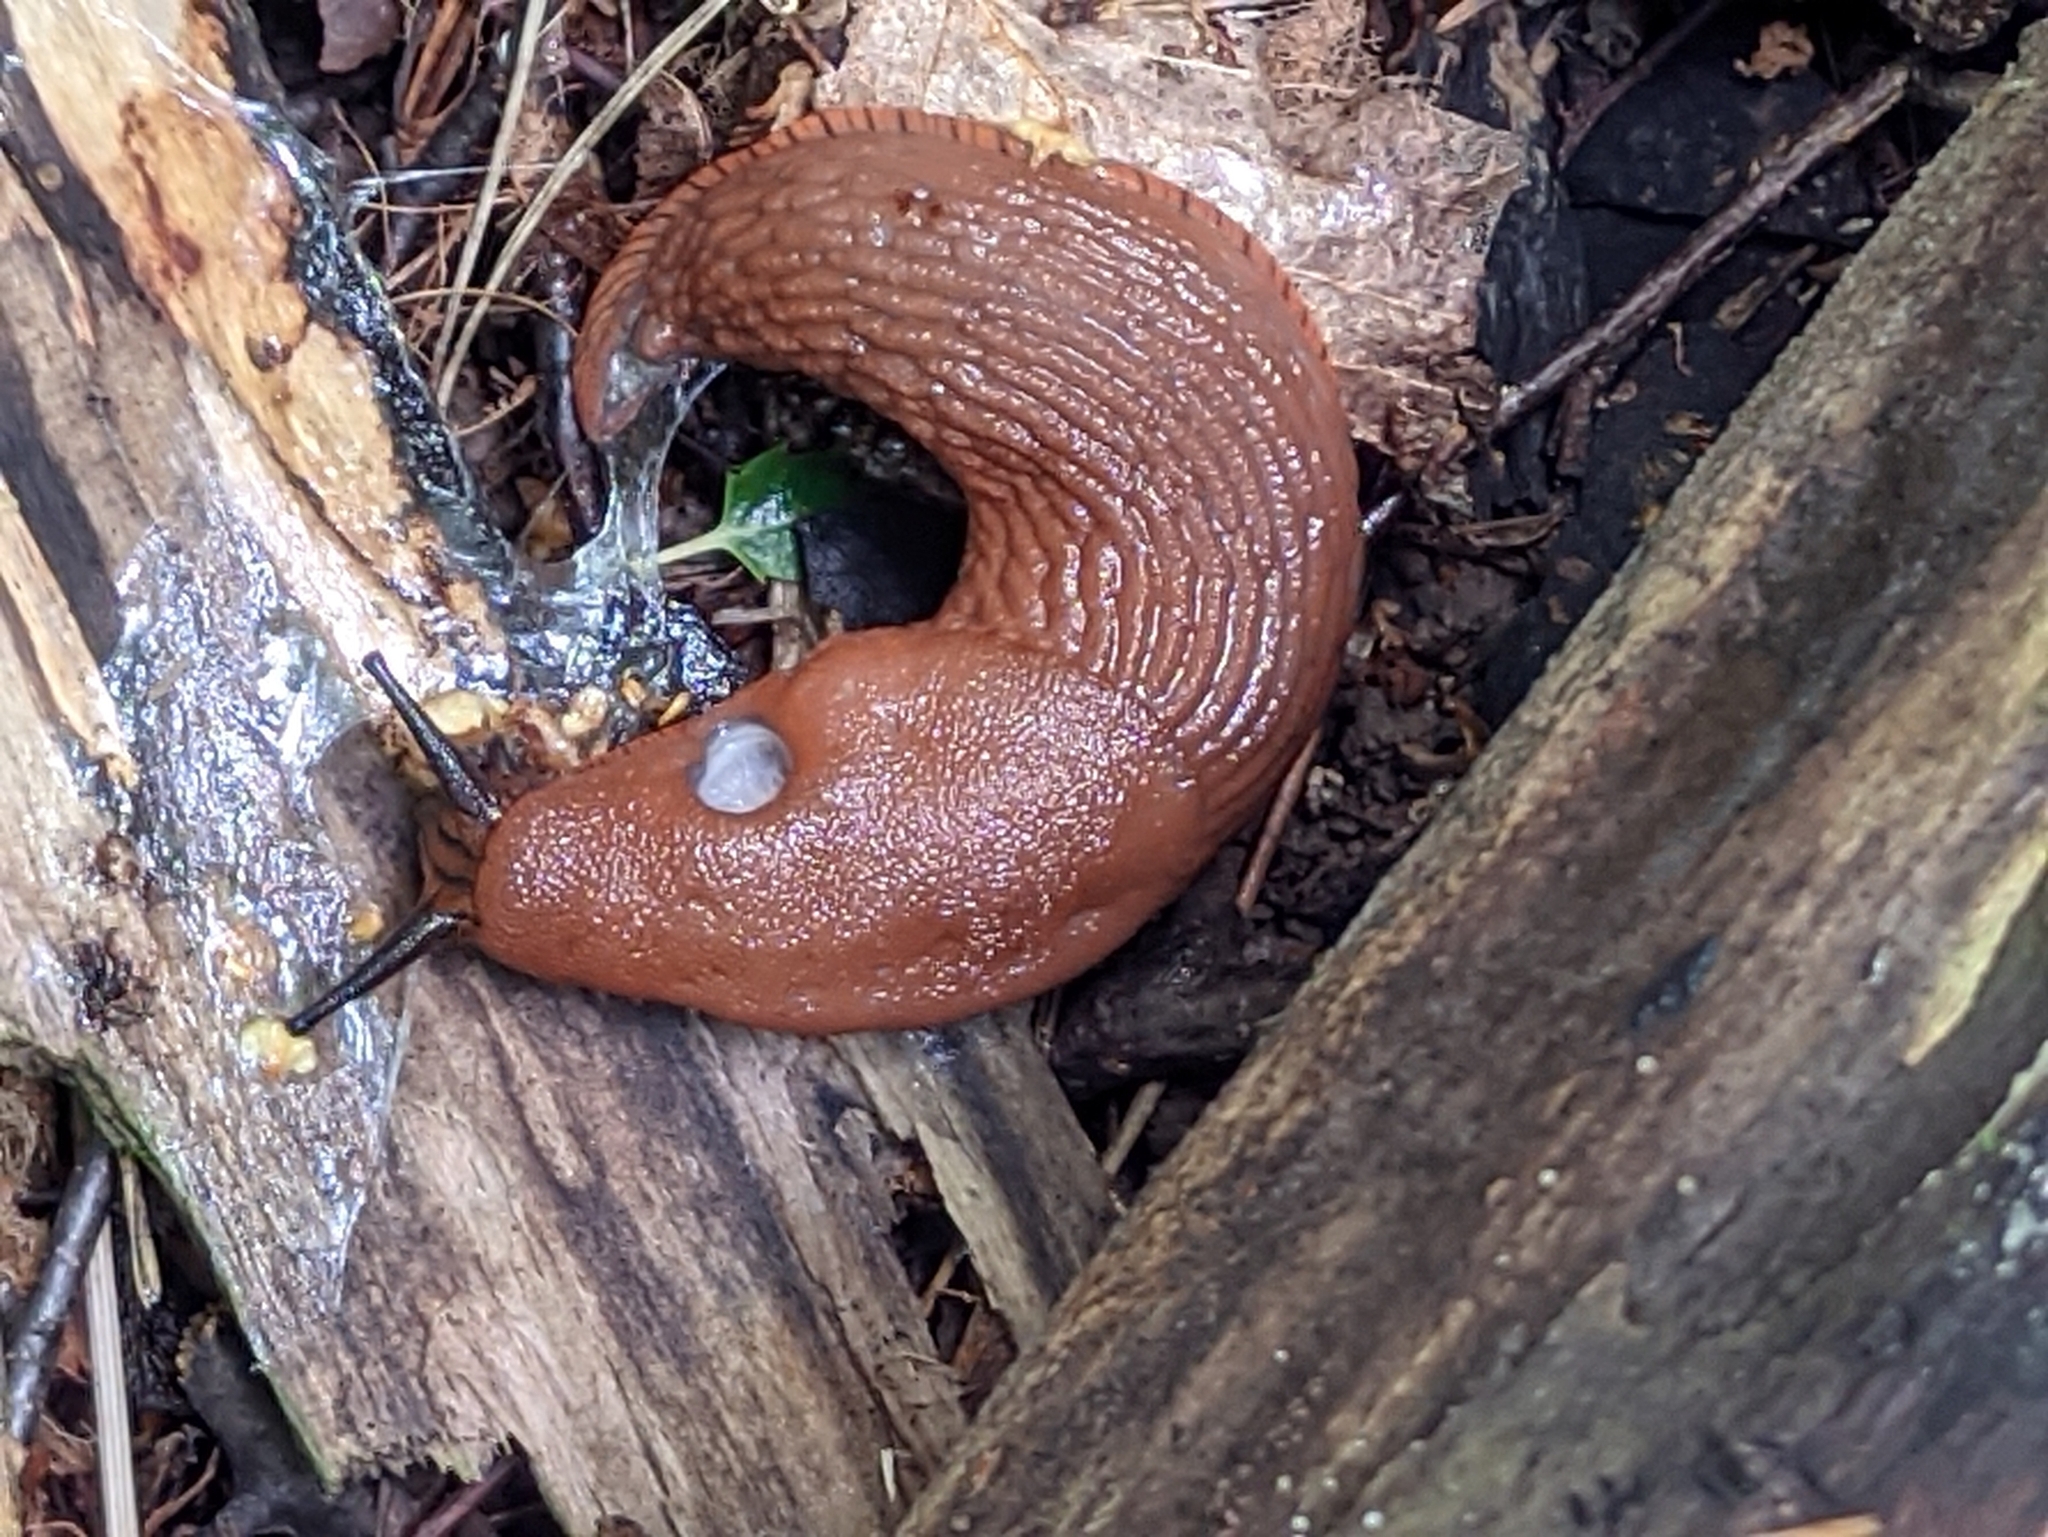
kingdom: Animalia
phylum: Mollusca
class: Gastropoda
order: Stylommatophora
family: Arionidae
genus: Arion
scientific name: Arion
